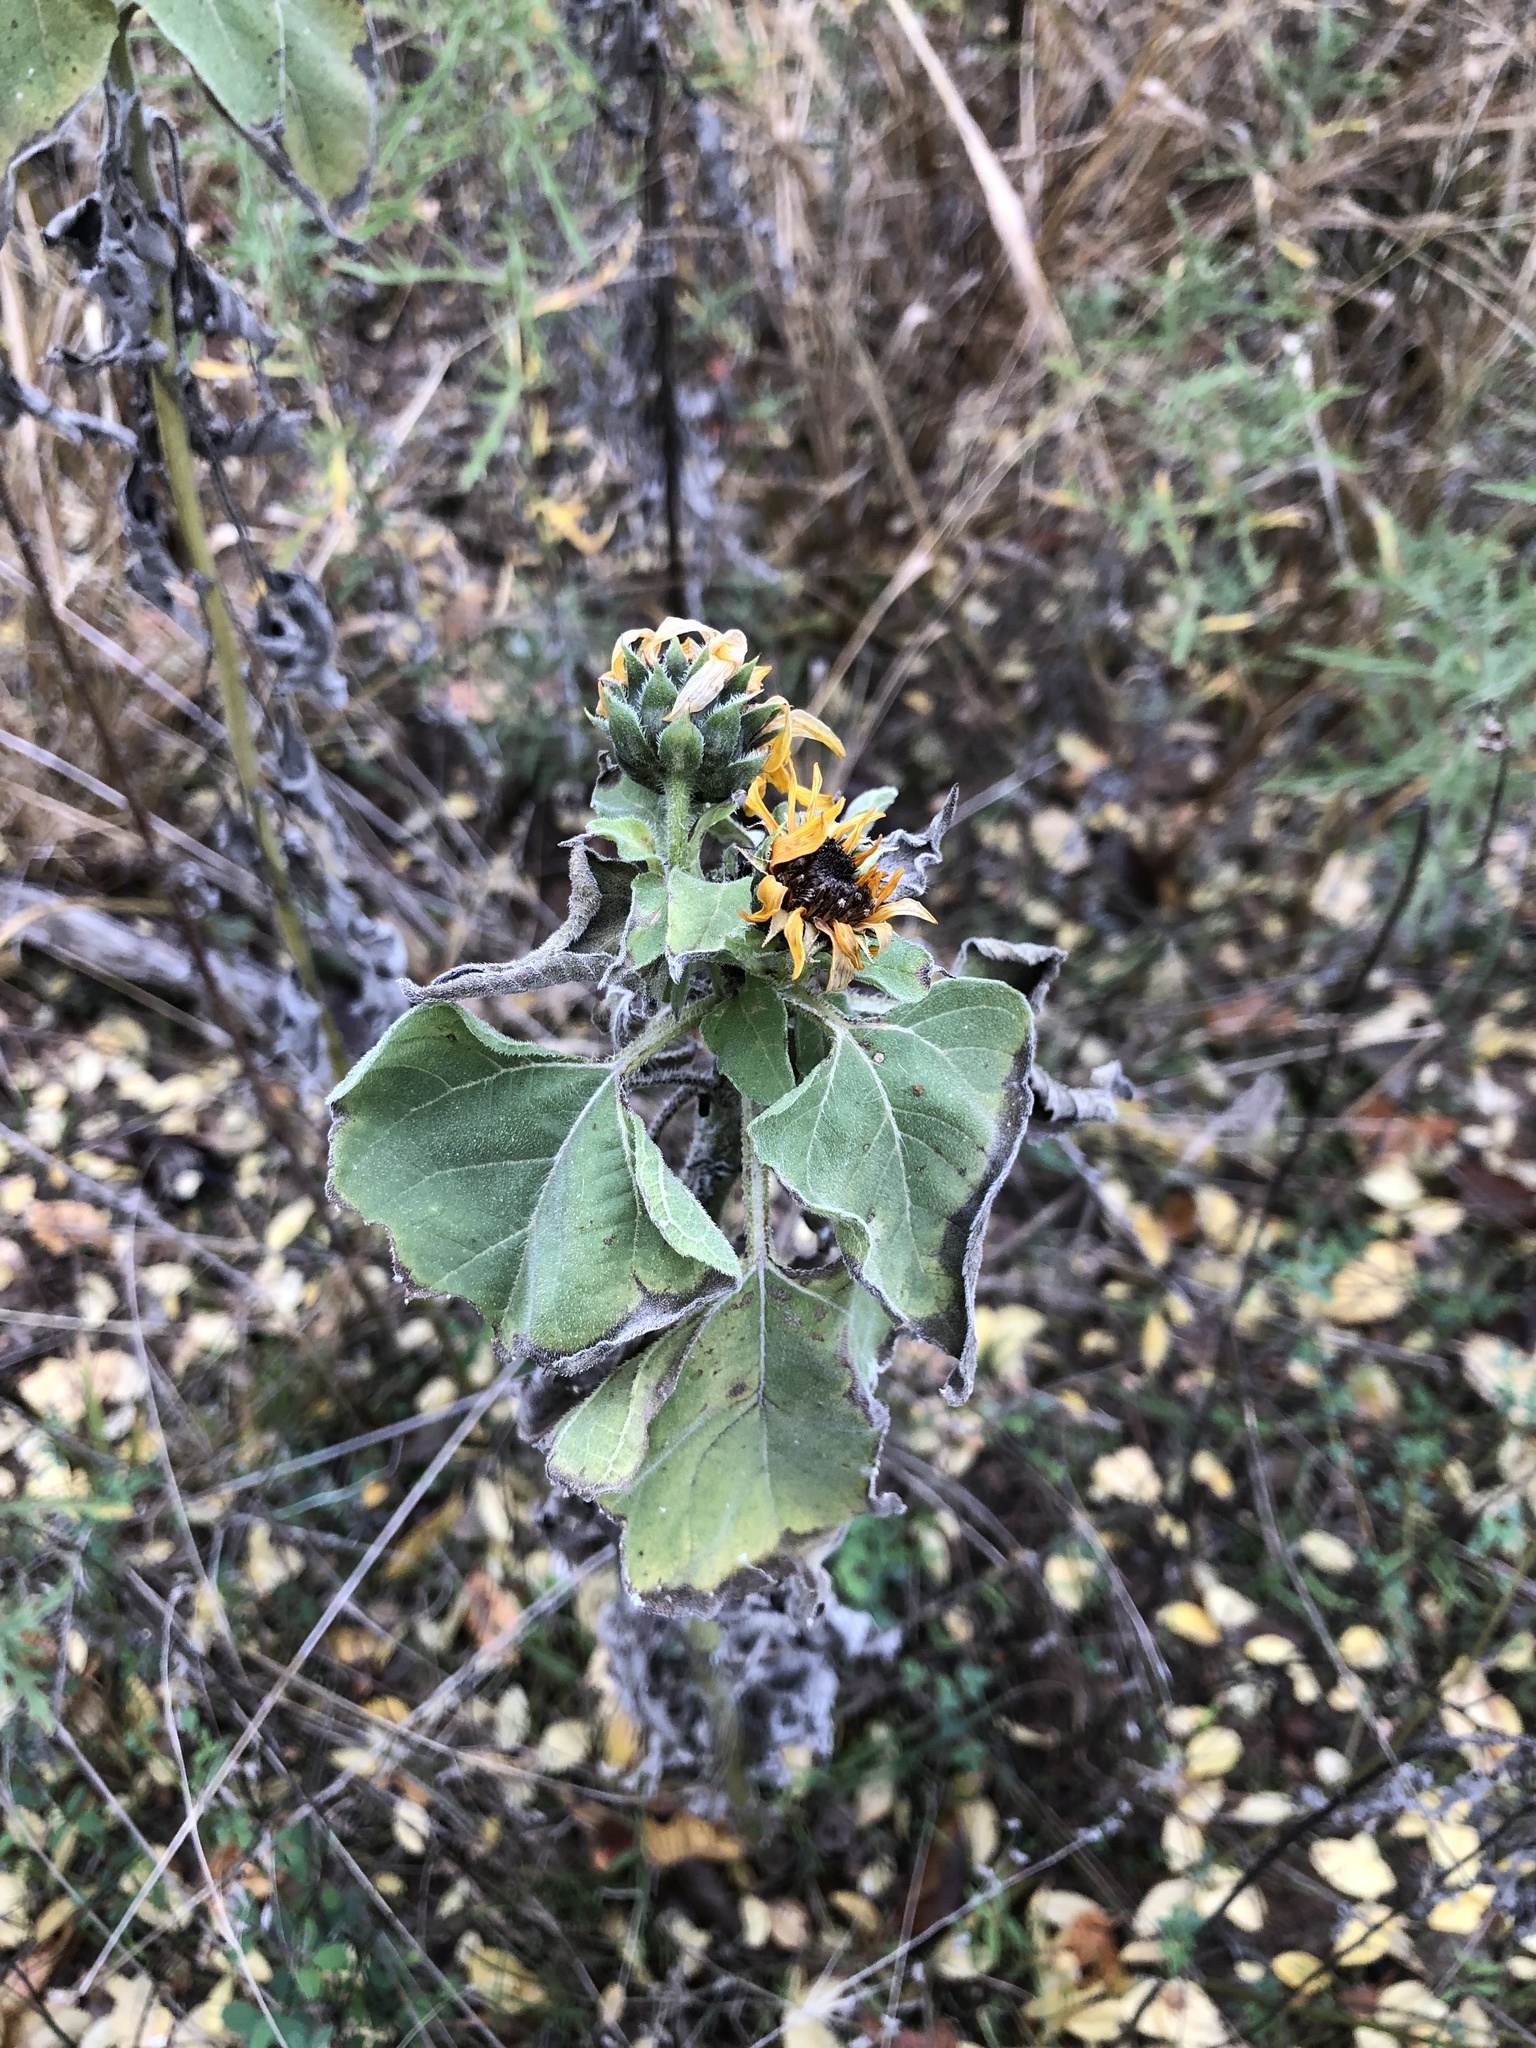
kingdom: Plantae
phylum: Tracheophyta
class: Magnoliopsida
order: Asterales
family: Asteraceae
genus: Helianthus
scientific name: Helianthus annuus
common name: Sunflower
